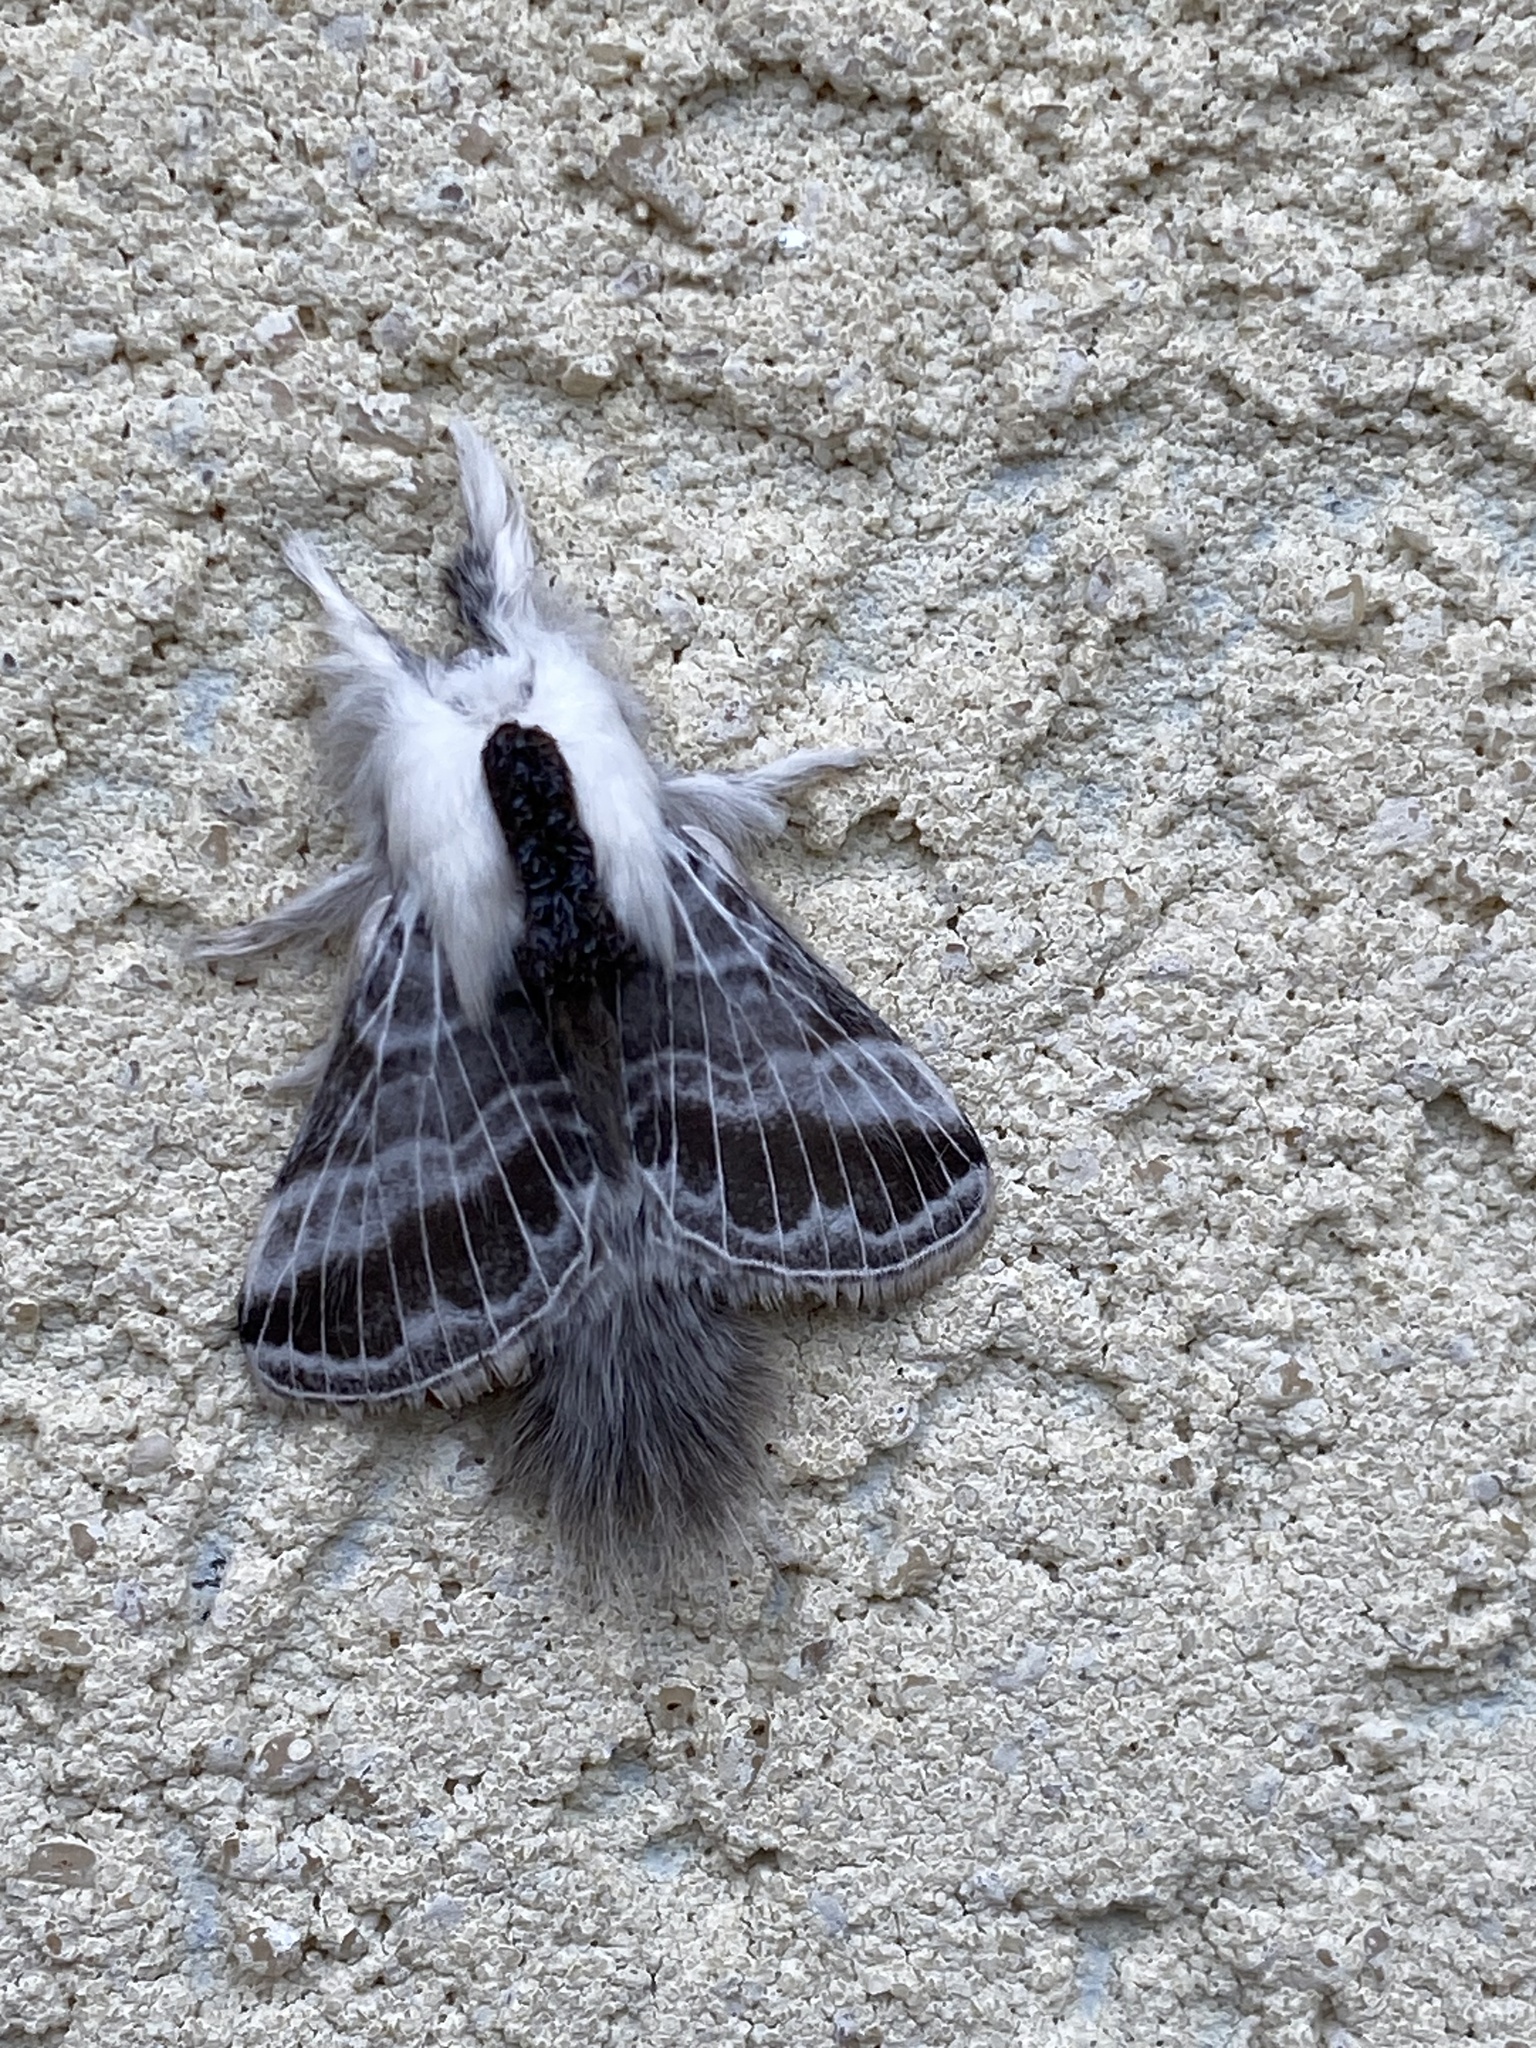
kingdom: Animalia
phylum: Arthropoda
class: Insecta
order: Lepidoptera
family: Lasiocampidae
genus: Tolype
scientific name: Tolype velleda
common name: Large tolype moth
